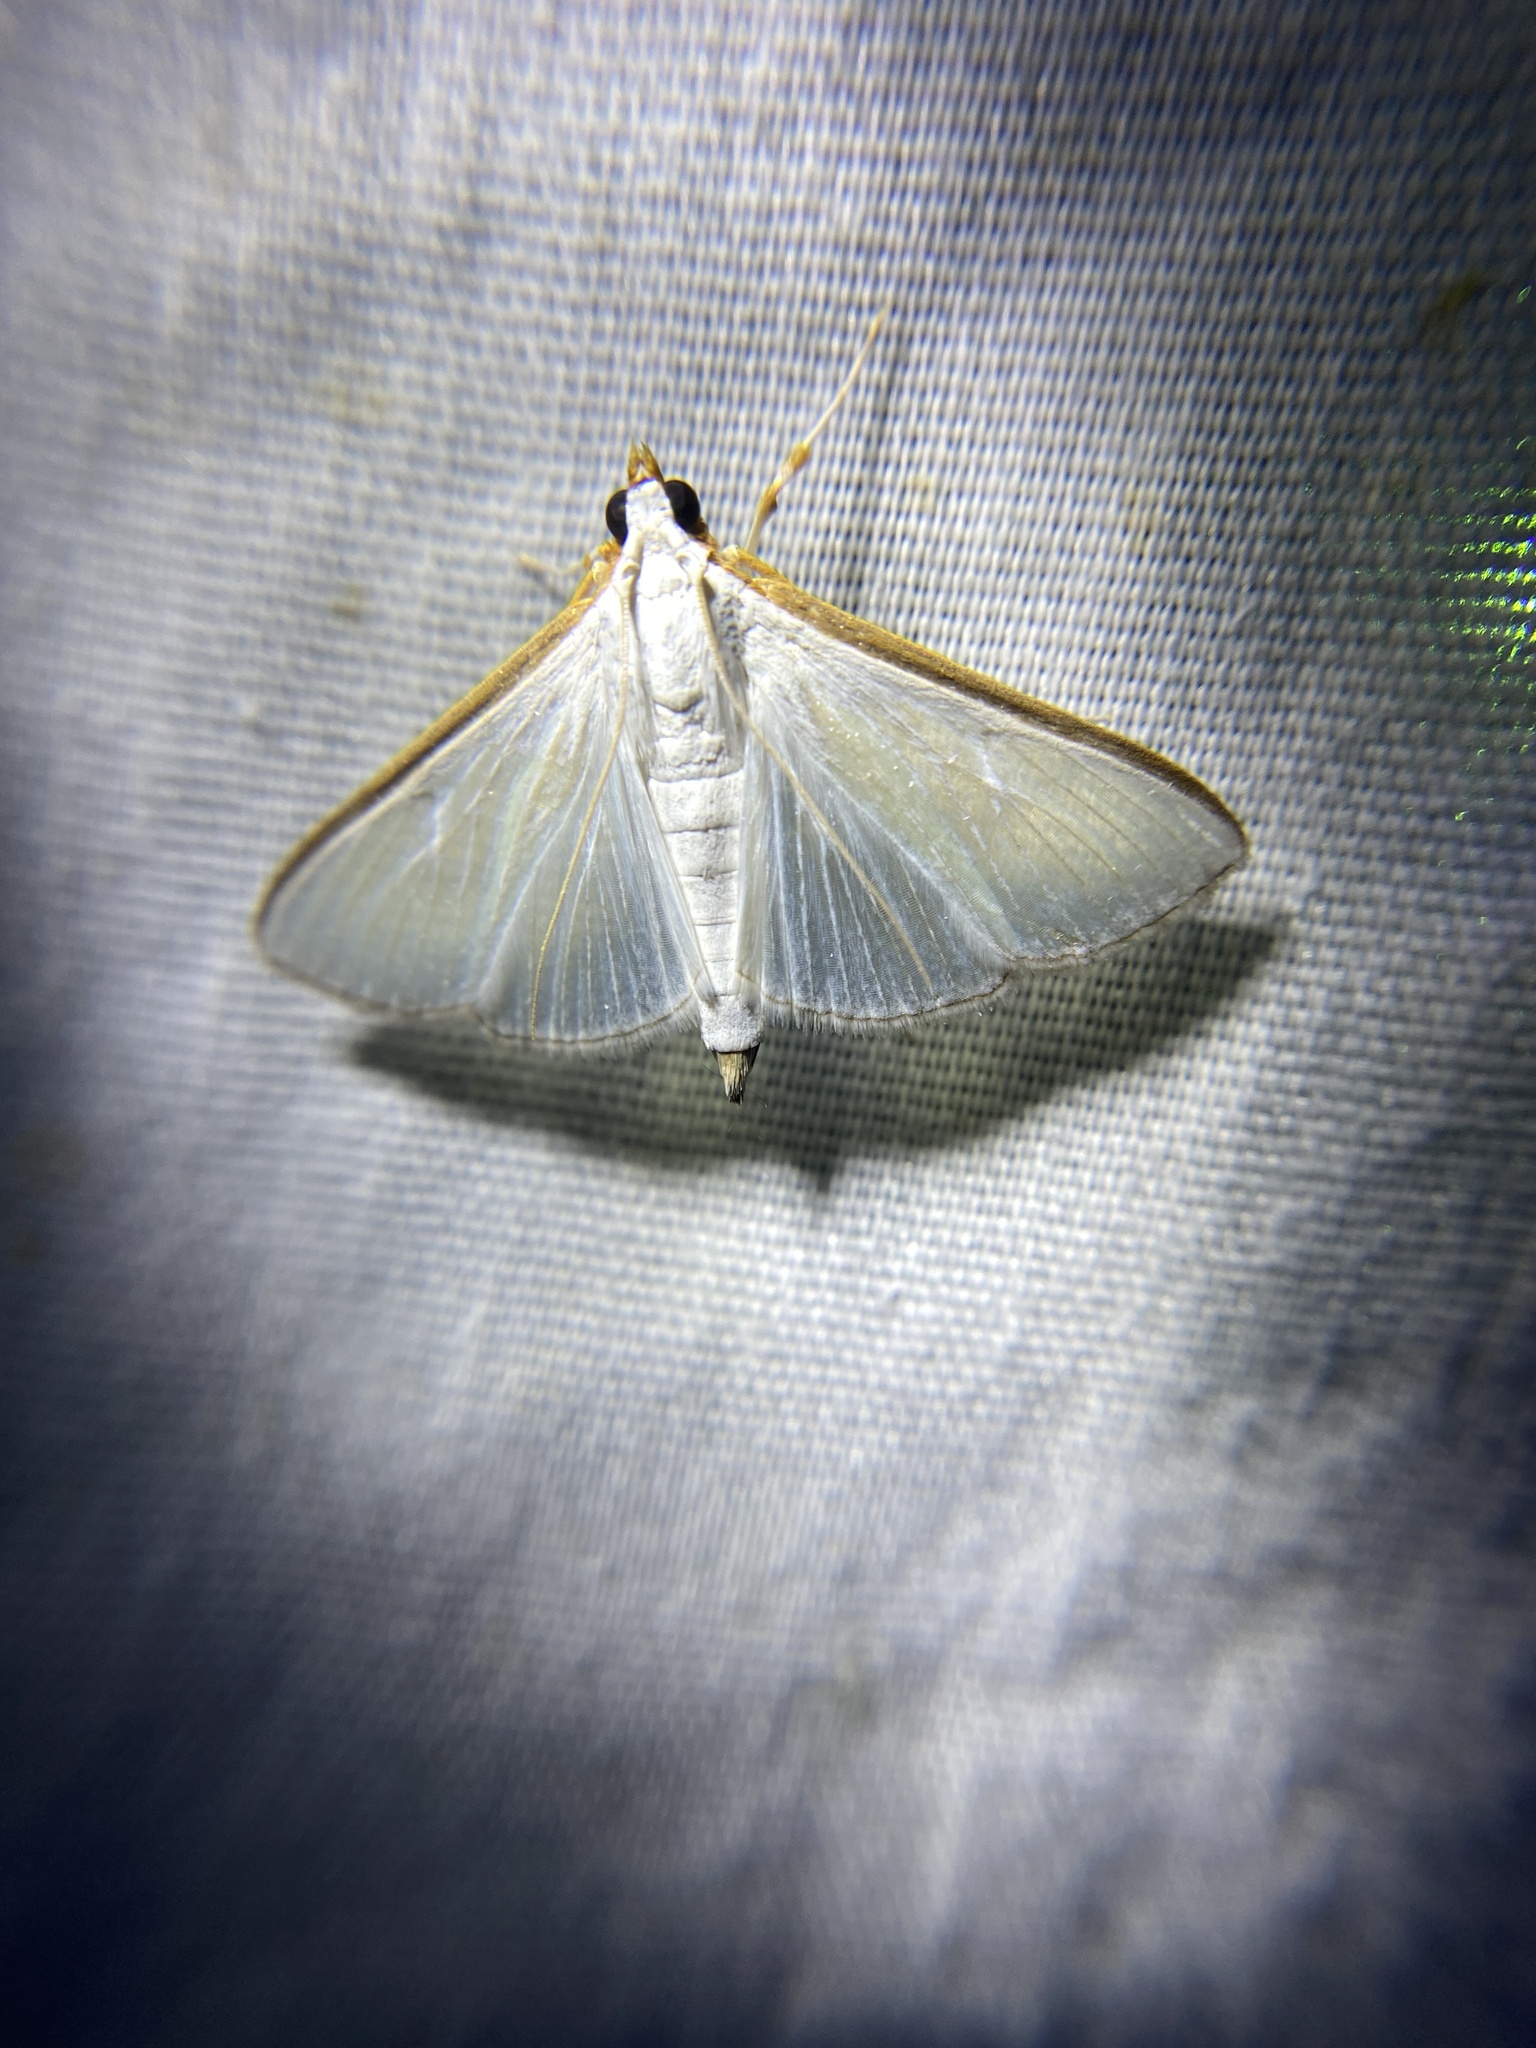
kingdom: Animalia
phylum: Arthropoda
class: Insecta
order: Lepidoptera
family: Crambidae
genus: Diaphania
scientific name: Diaphania costata
